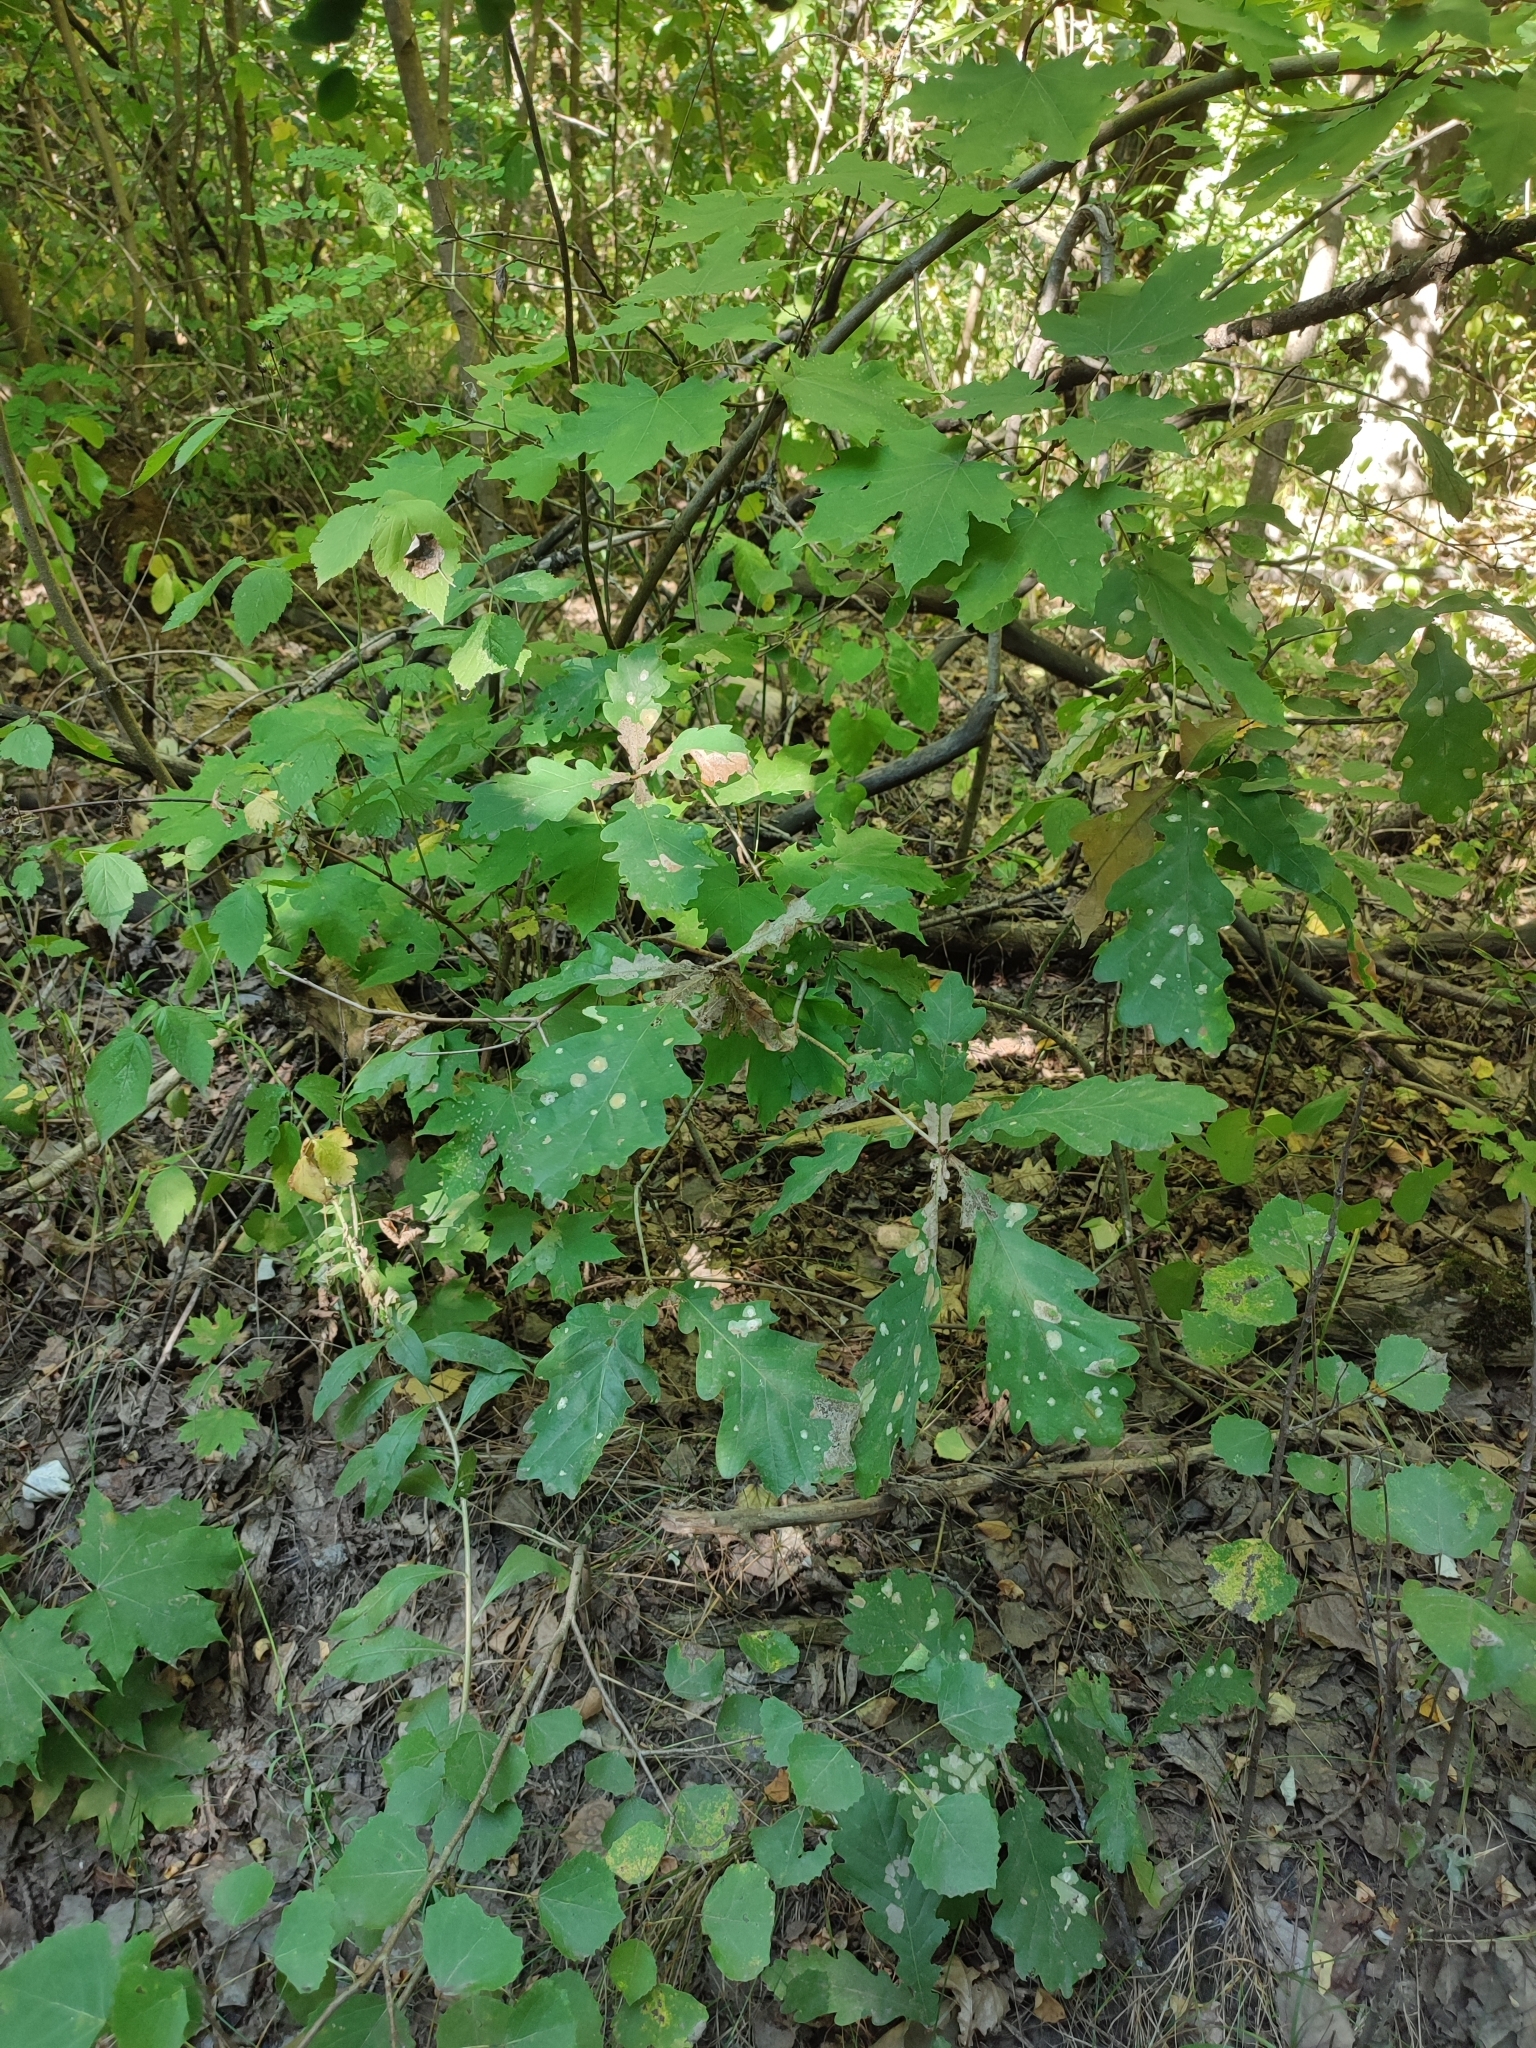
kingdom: Plantae
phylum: Tracheophyta
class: Magnoliopsida
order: Fagales
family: Fagaceae
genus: Quercus
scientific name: Quercus robur
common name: Pedunculate oak
